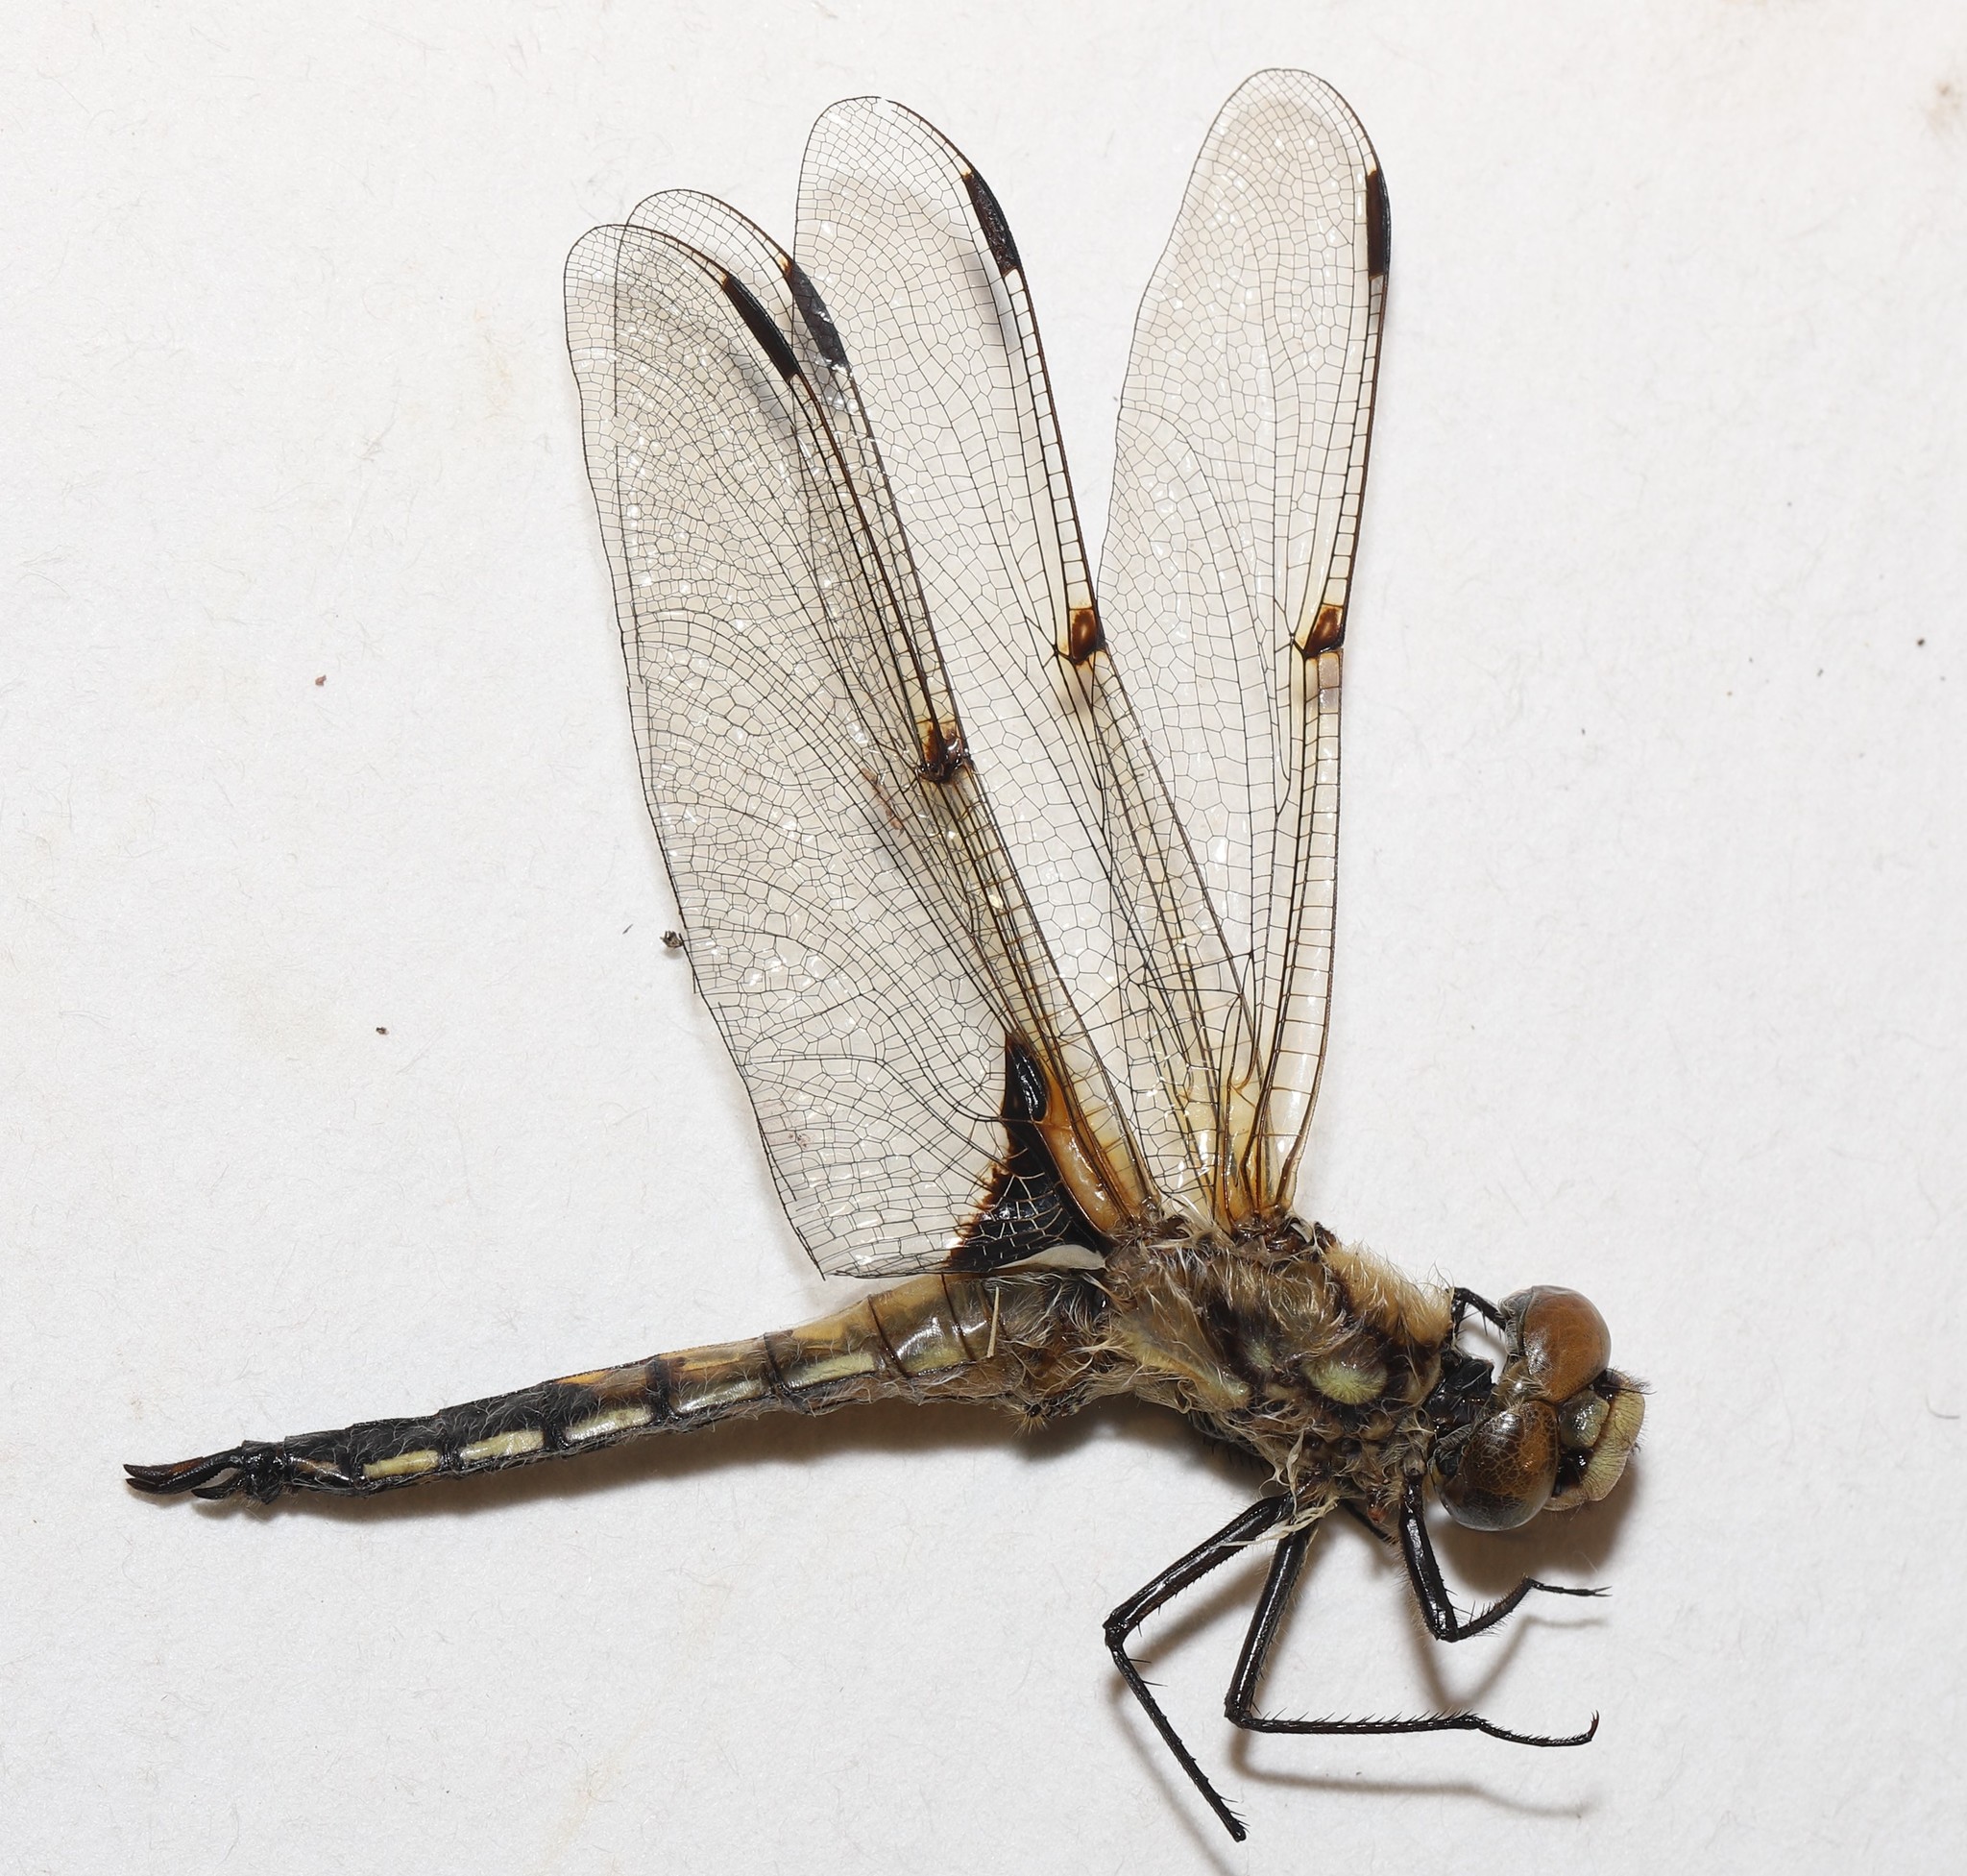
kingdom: Animalia
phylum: Arthropoda
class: Insecta
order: Odonata
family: Libellulidae
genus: Libellula
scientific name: Libellula quadrimaculata
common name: Four-spotted chaser
